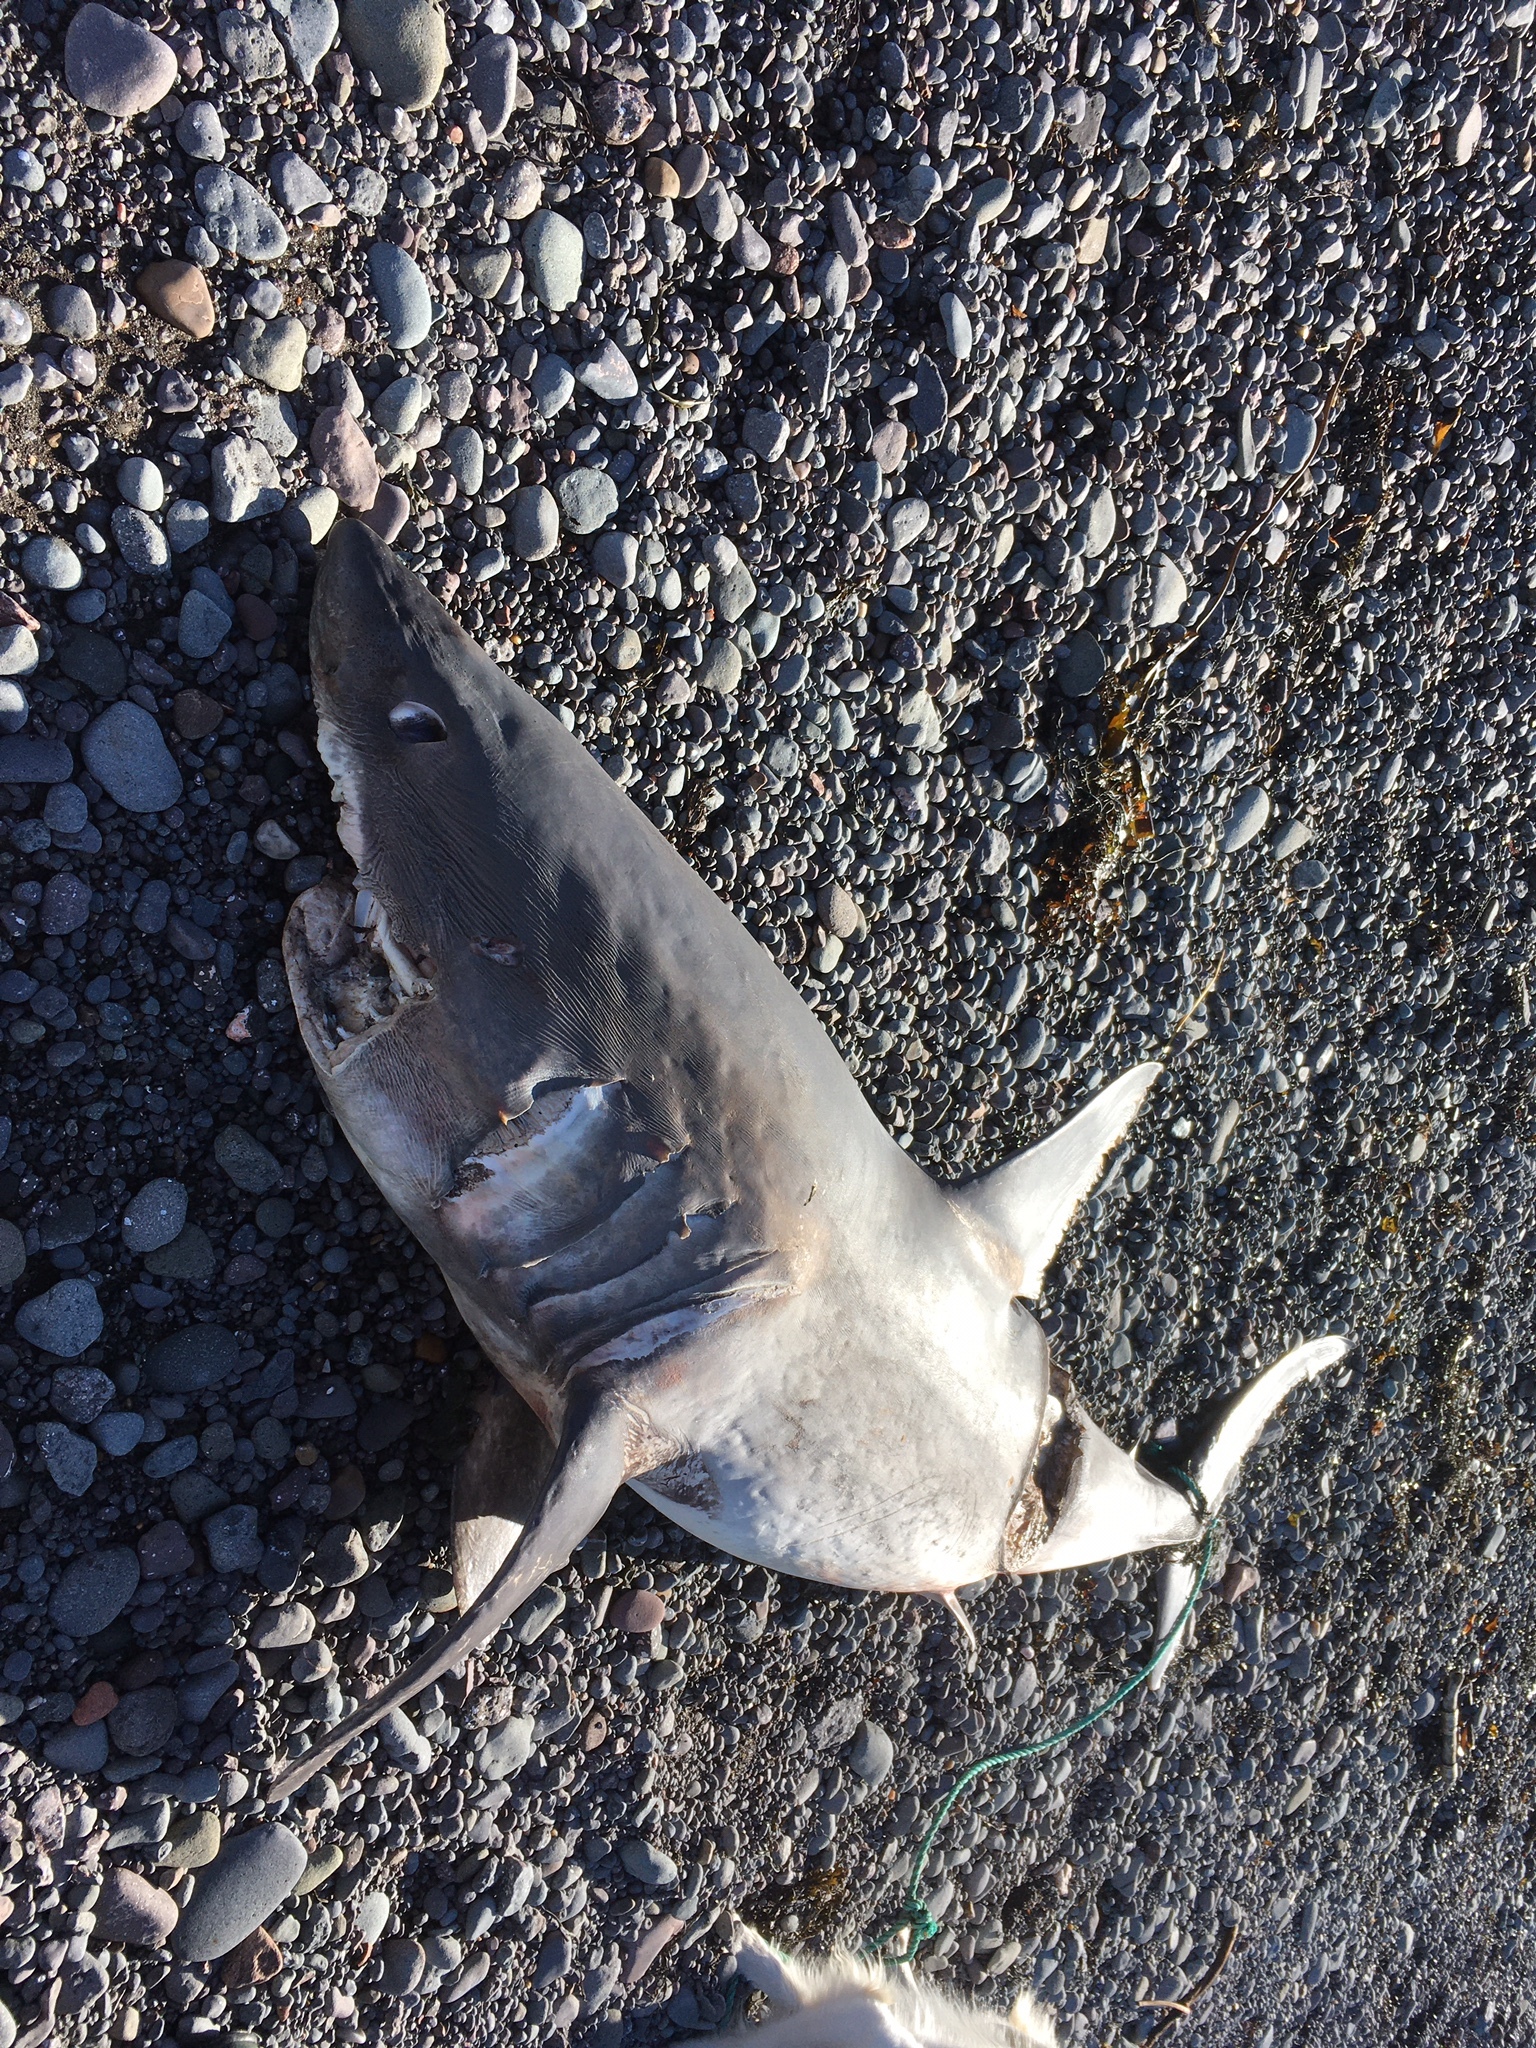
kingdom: Animalia
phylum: Chordata
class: Elasmobranchii
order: Lamniformes
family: Lamnidae
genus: Lamna
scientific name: Lamna nasus
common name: Porbeagle
